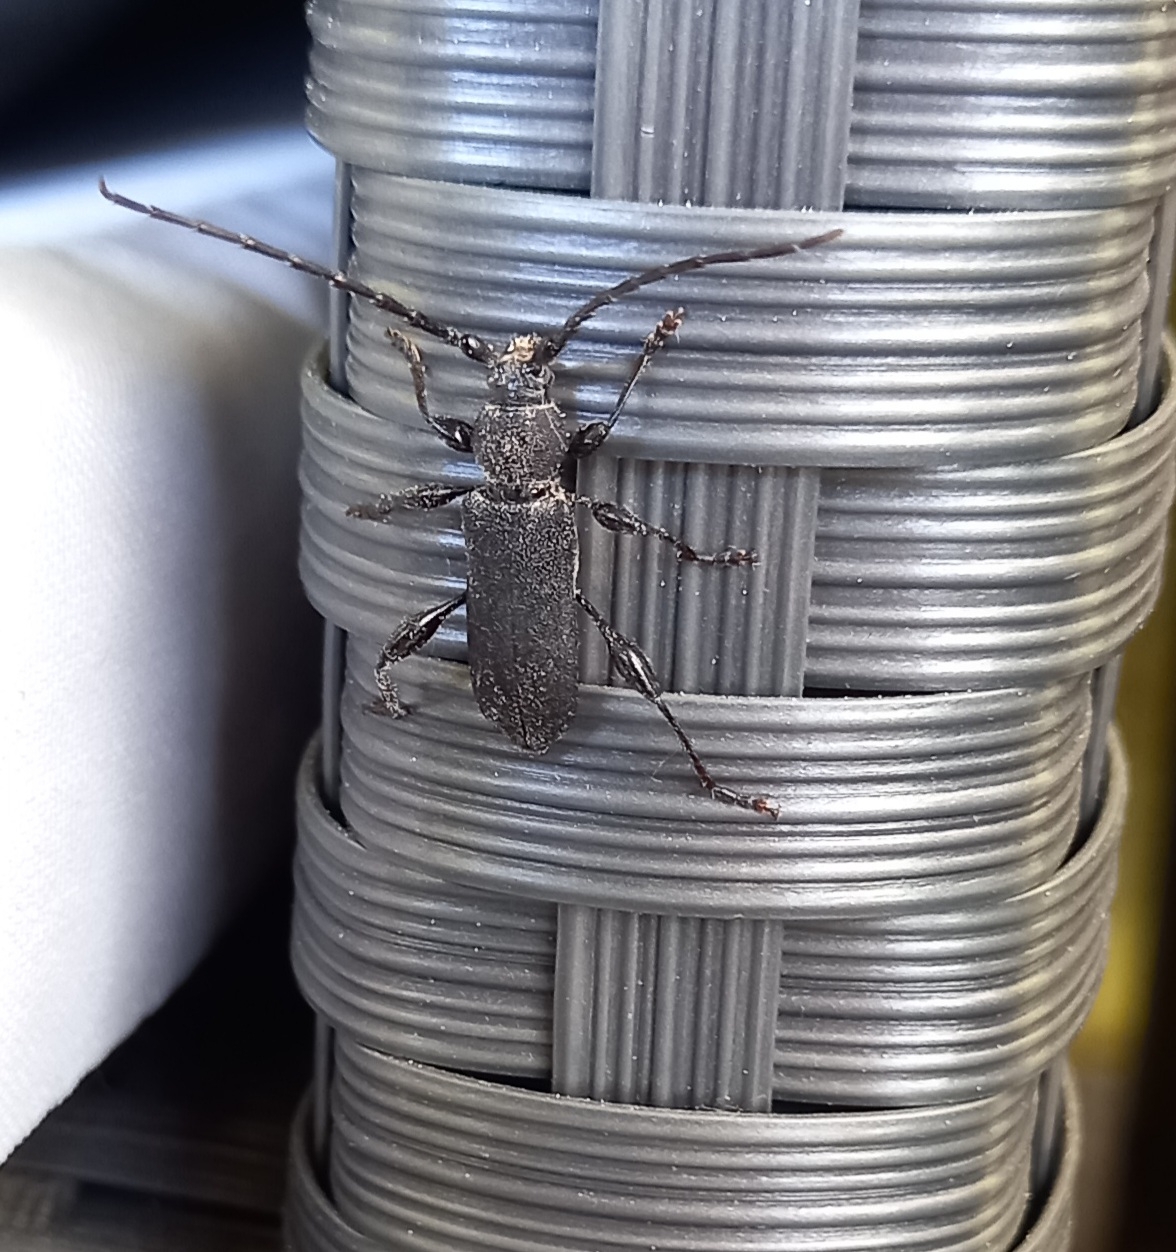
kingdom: Animalia
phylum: Arthropoda
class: Insecta
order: Coleoptera
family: Cerambycidae
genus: Ropalopus
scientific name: Ropalopus clavipes
